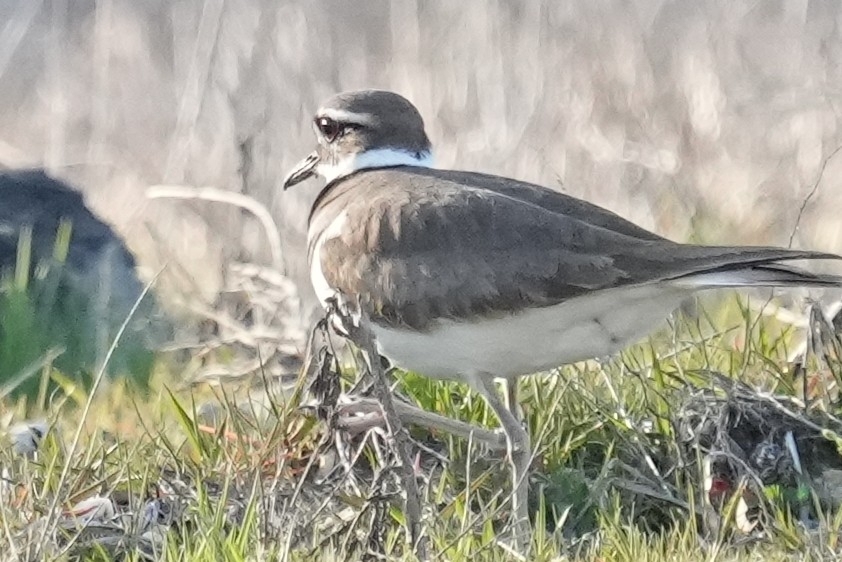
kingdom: Animalia
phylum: Chordata
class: Aves
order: Charadriiformes
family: Charadriidae
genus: Charadrius
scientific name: Charadrius vociferus
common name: Killdeer
